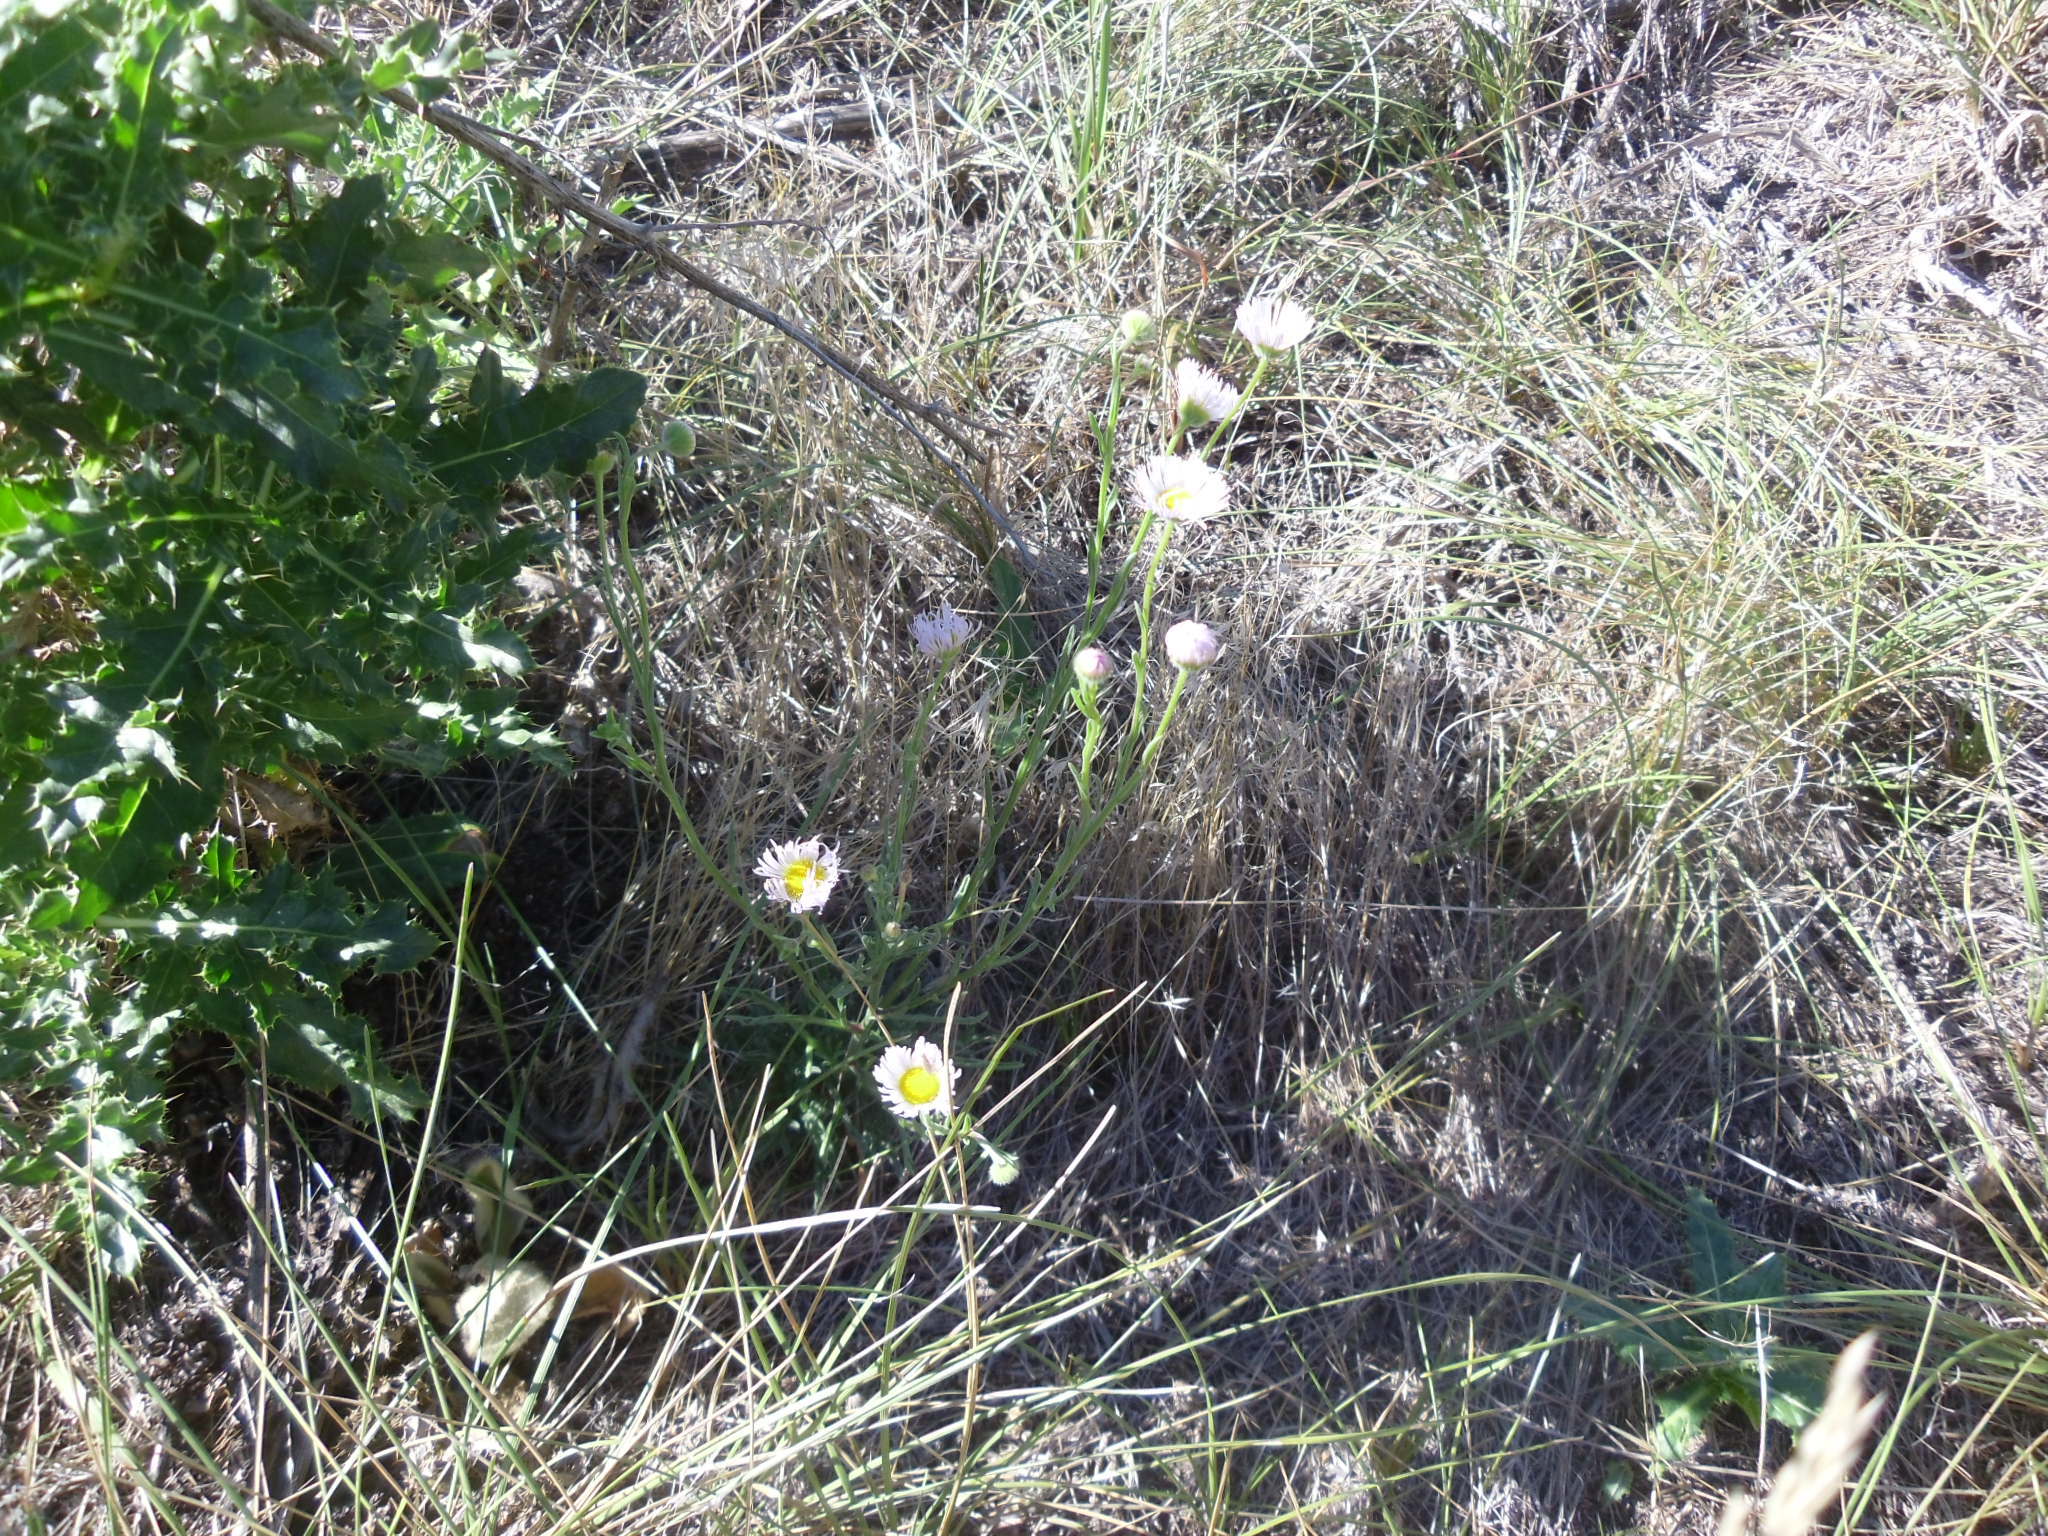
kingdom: Plantae
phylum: Tracheophyta
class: Magnoliopsida
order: Asterales
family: Asteraceae
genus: Erigeron
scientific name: Erigeron divergens
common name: Diffuse fleabane
